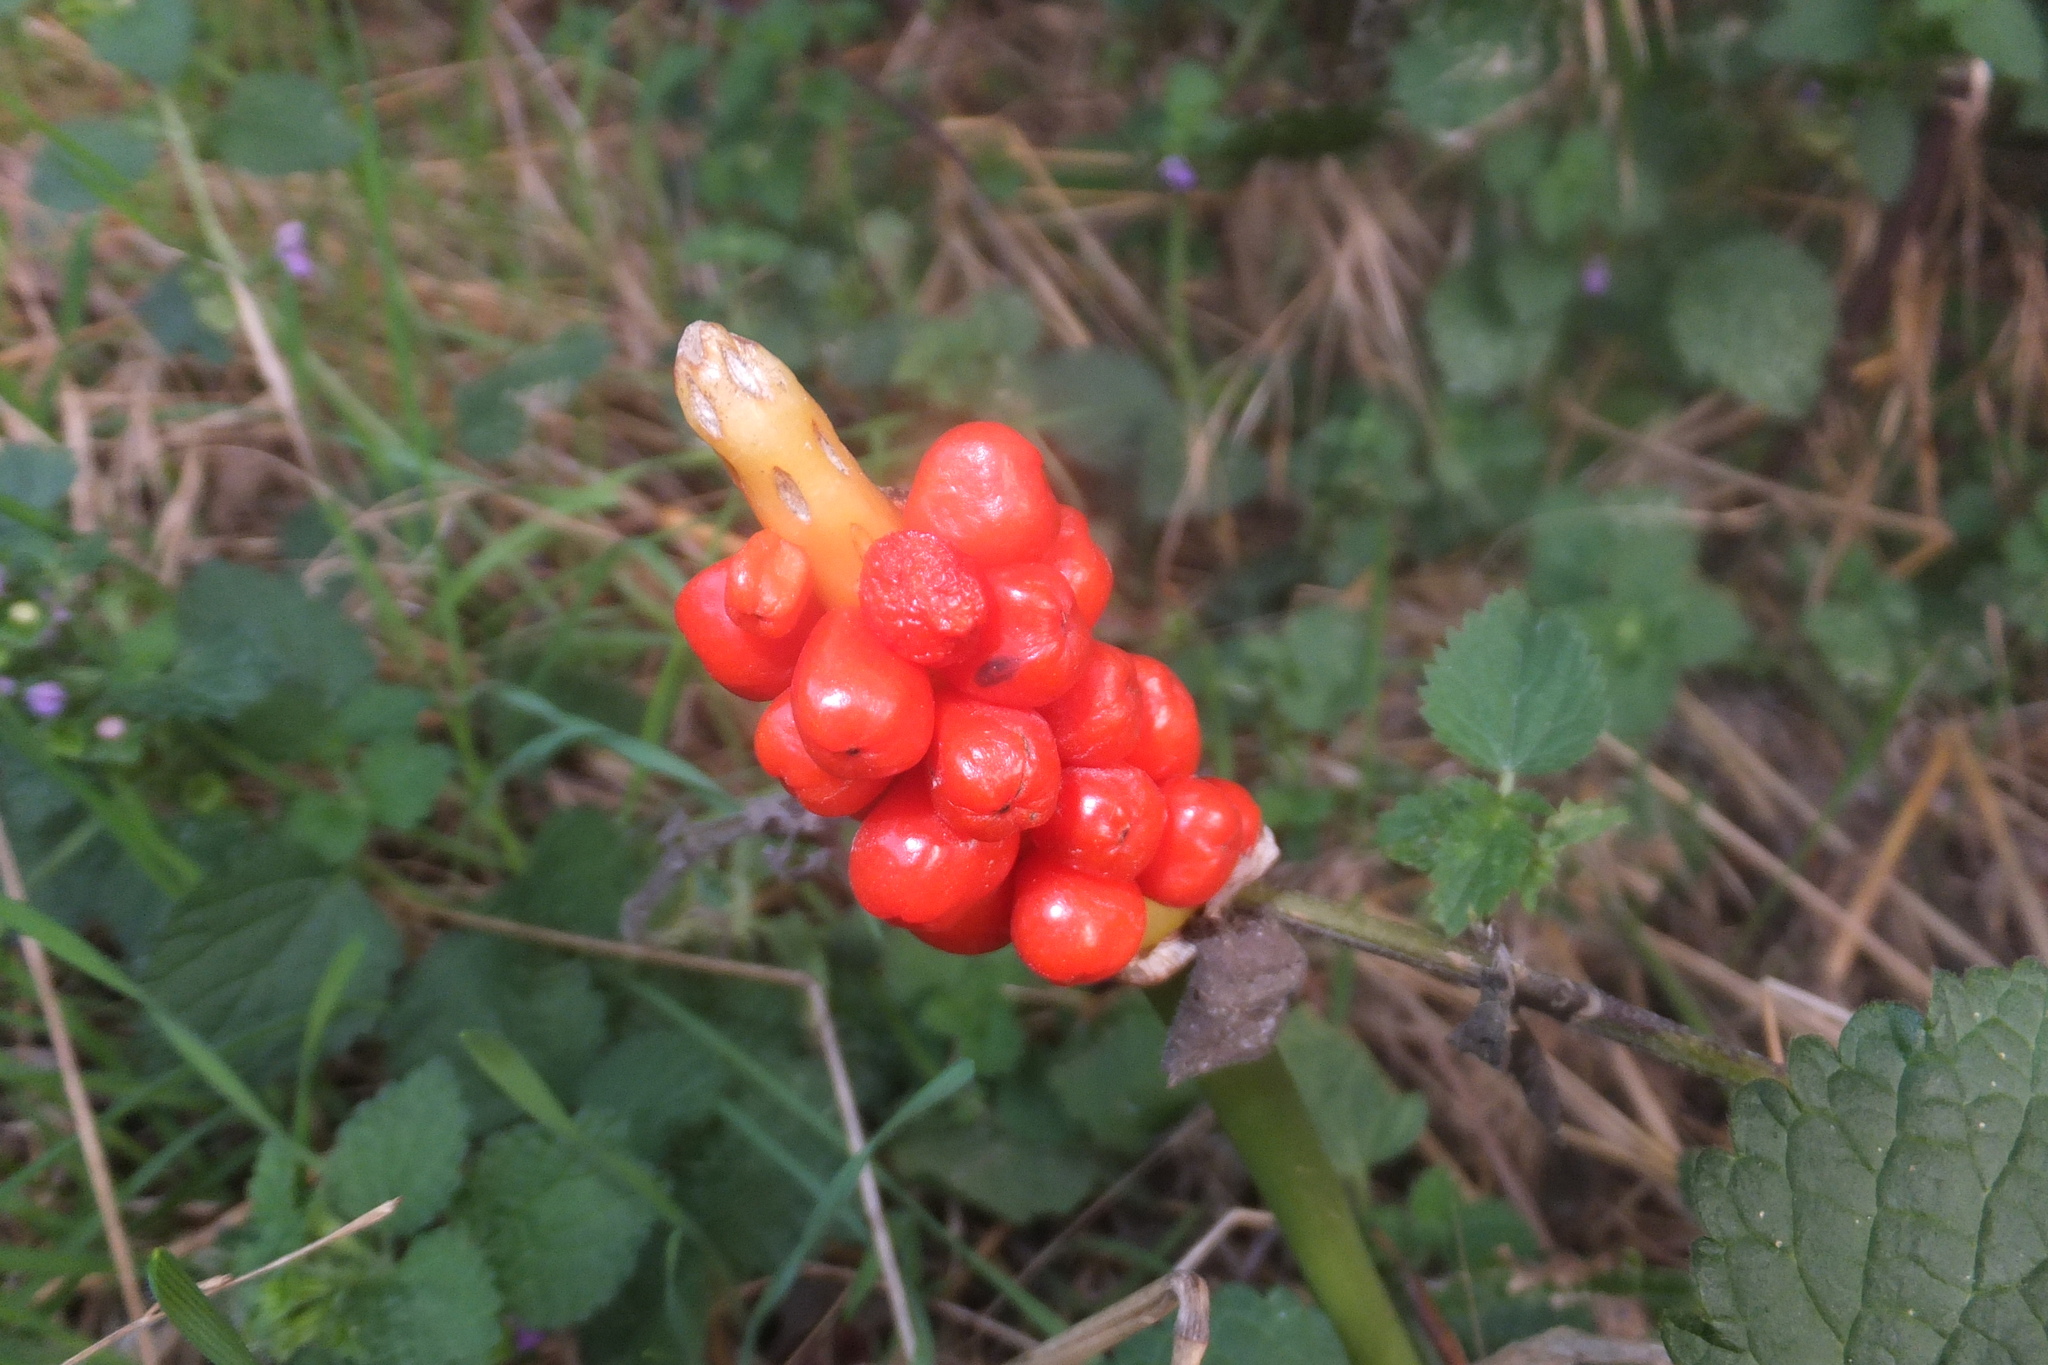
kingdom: Plantae
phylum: Tracheophyta
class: Liliopsida
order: Alismatales
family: Araceae
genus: Arum
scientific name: Arum
